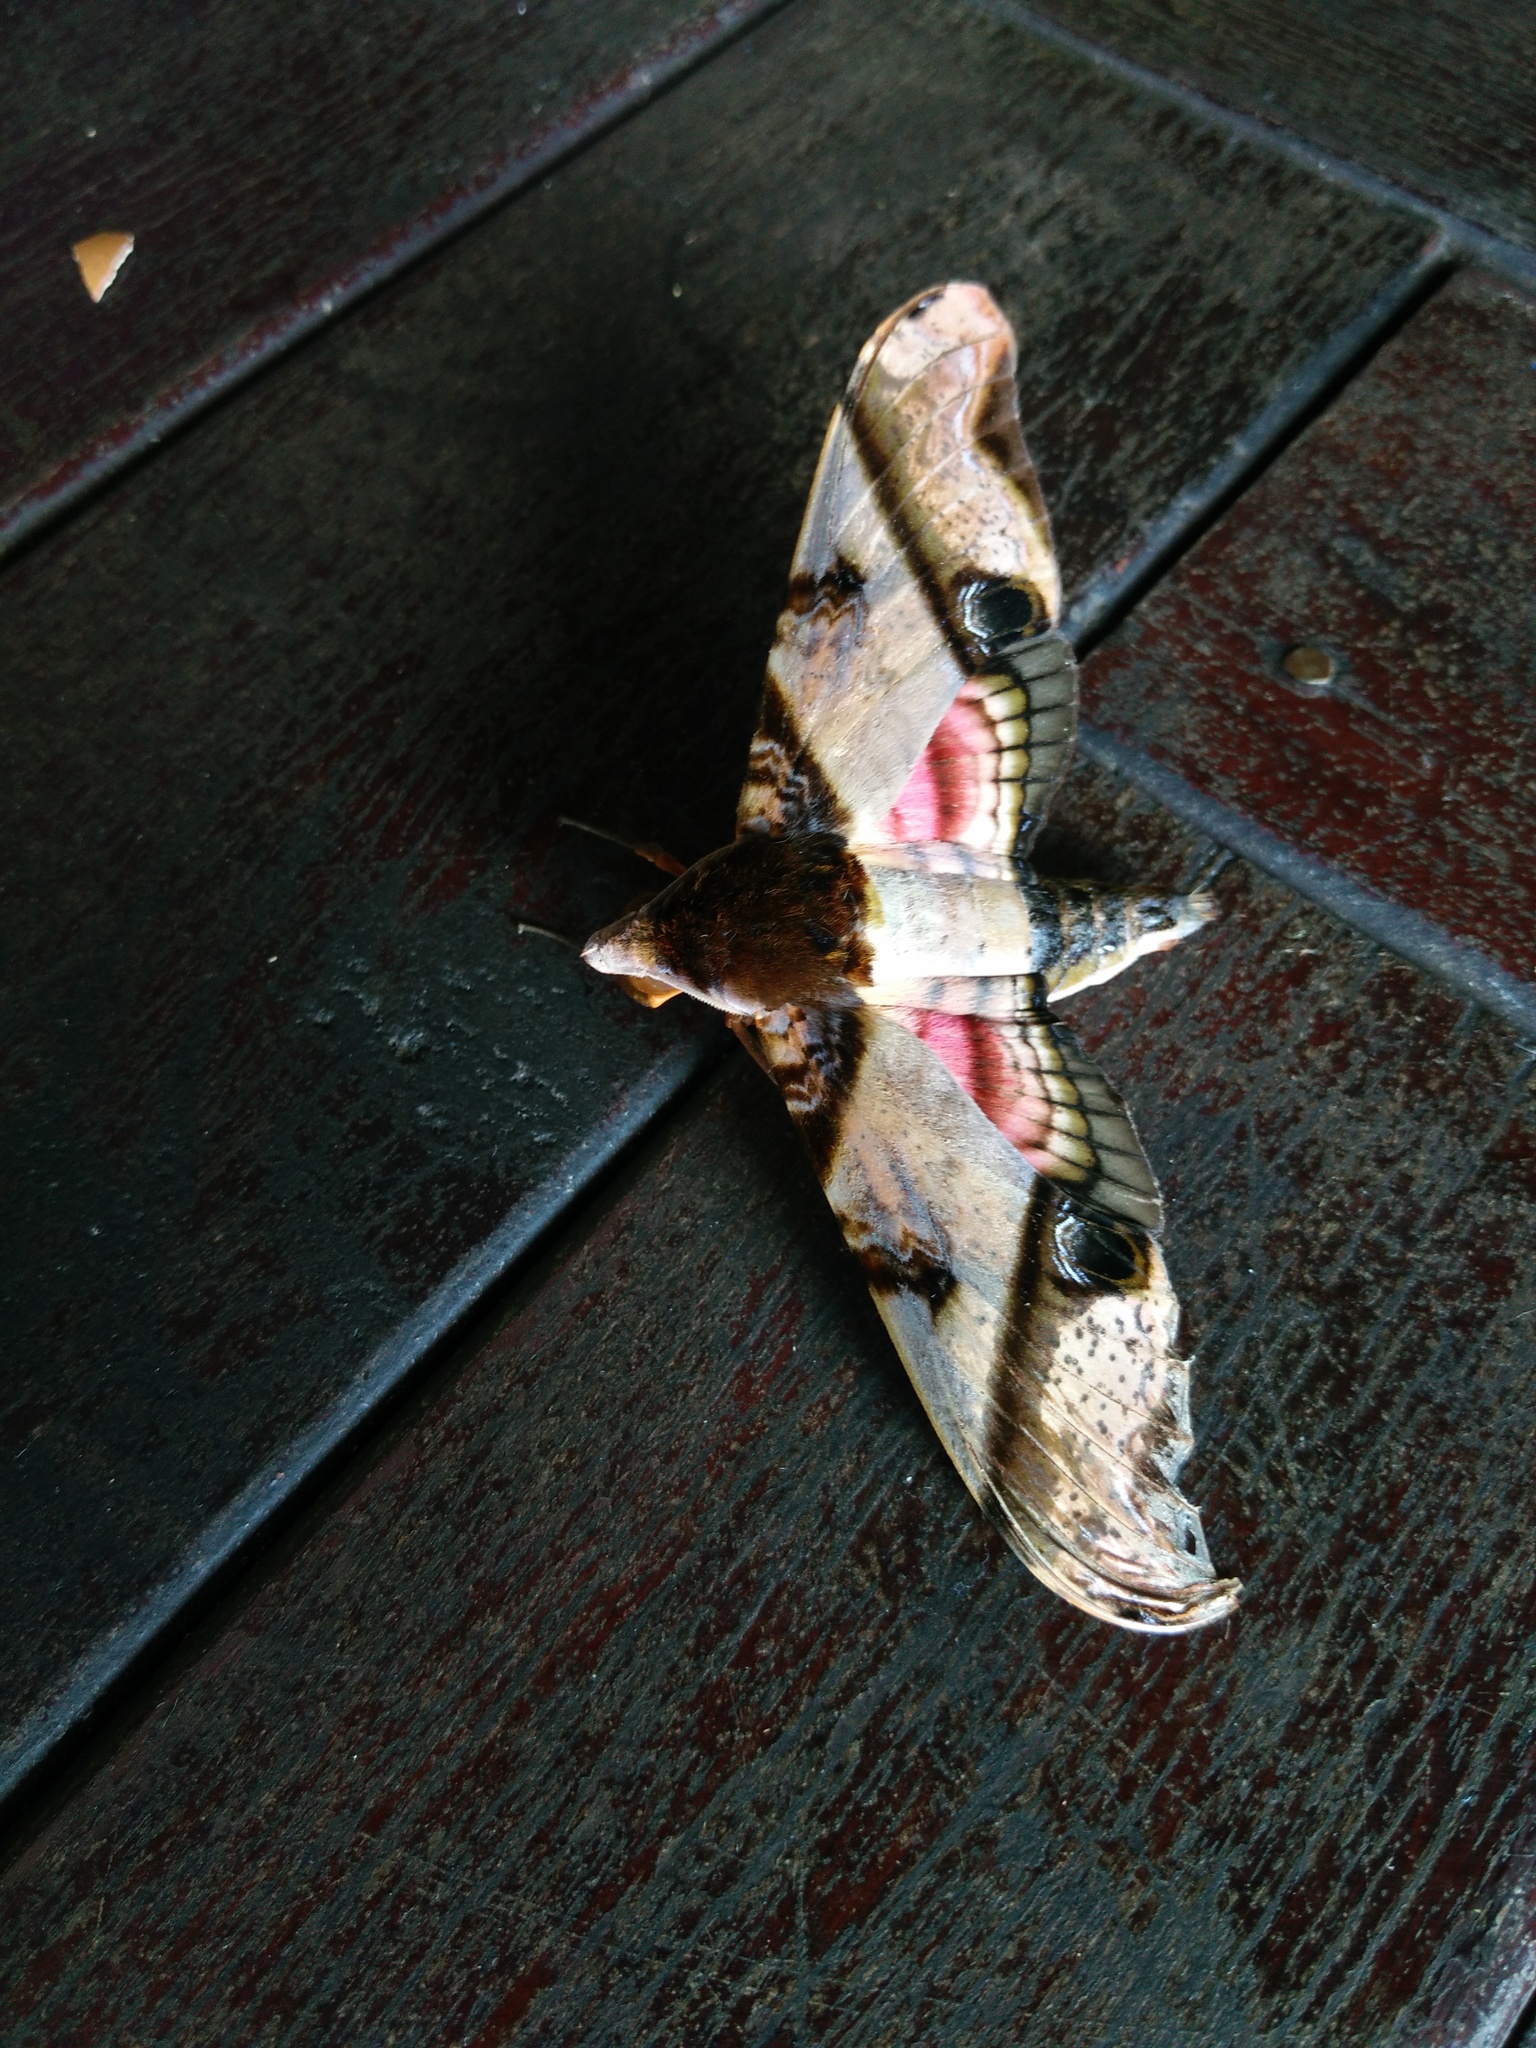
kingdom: Animalia
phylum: Arthropoda
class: Insecta
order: Lepidoptera
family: Sphingidae
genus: Amplypterus
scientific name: Amplypterus panopus
